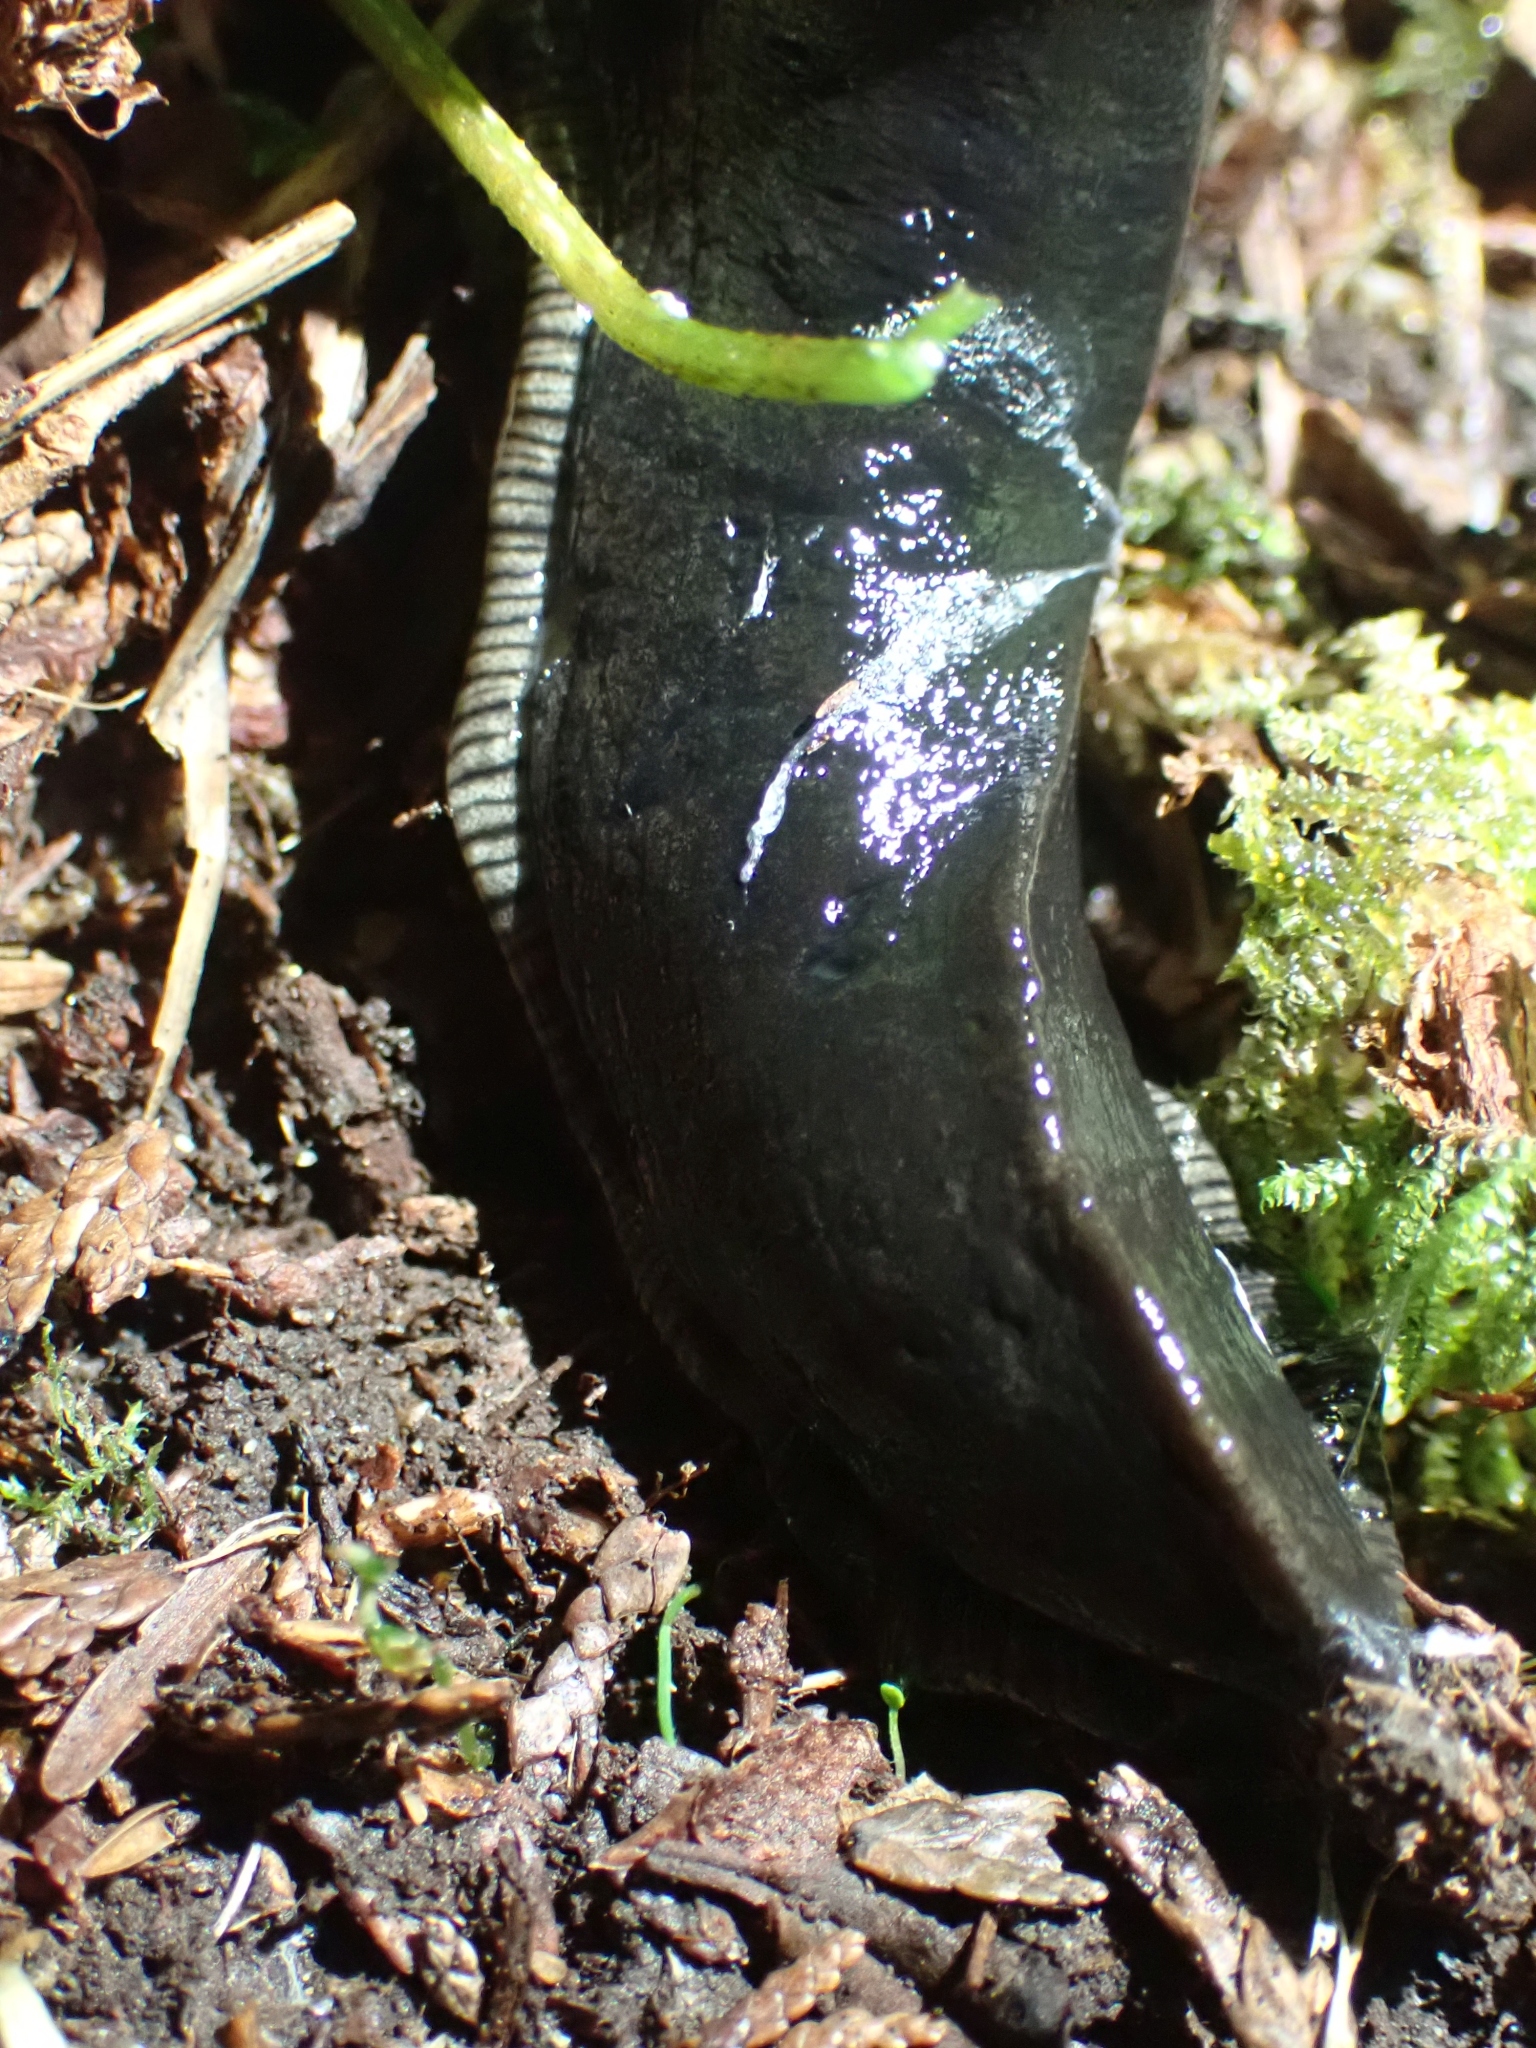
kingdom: Animalia
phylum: Mollusca
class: Gastropoda
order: Stylommatophora
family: Ariolimacidae
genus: Ariolimax
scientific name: Ariolimax columbianus
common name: Pacific banana slug
